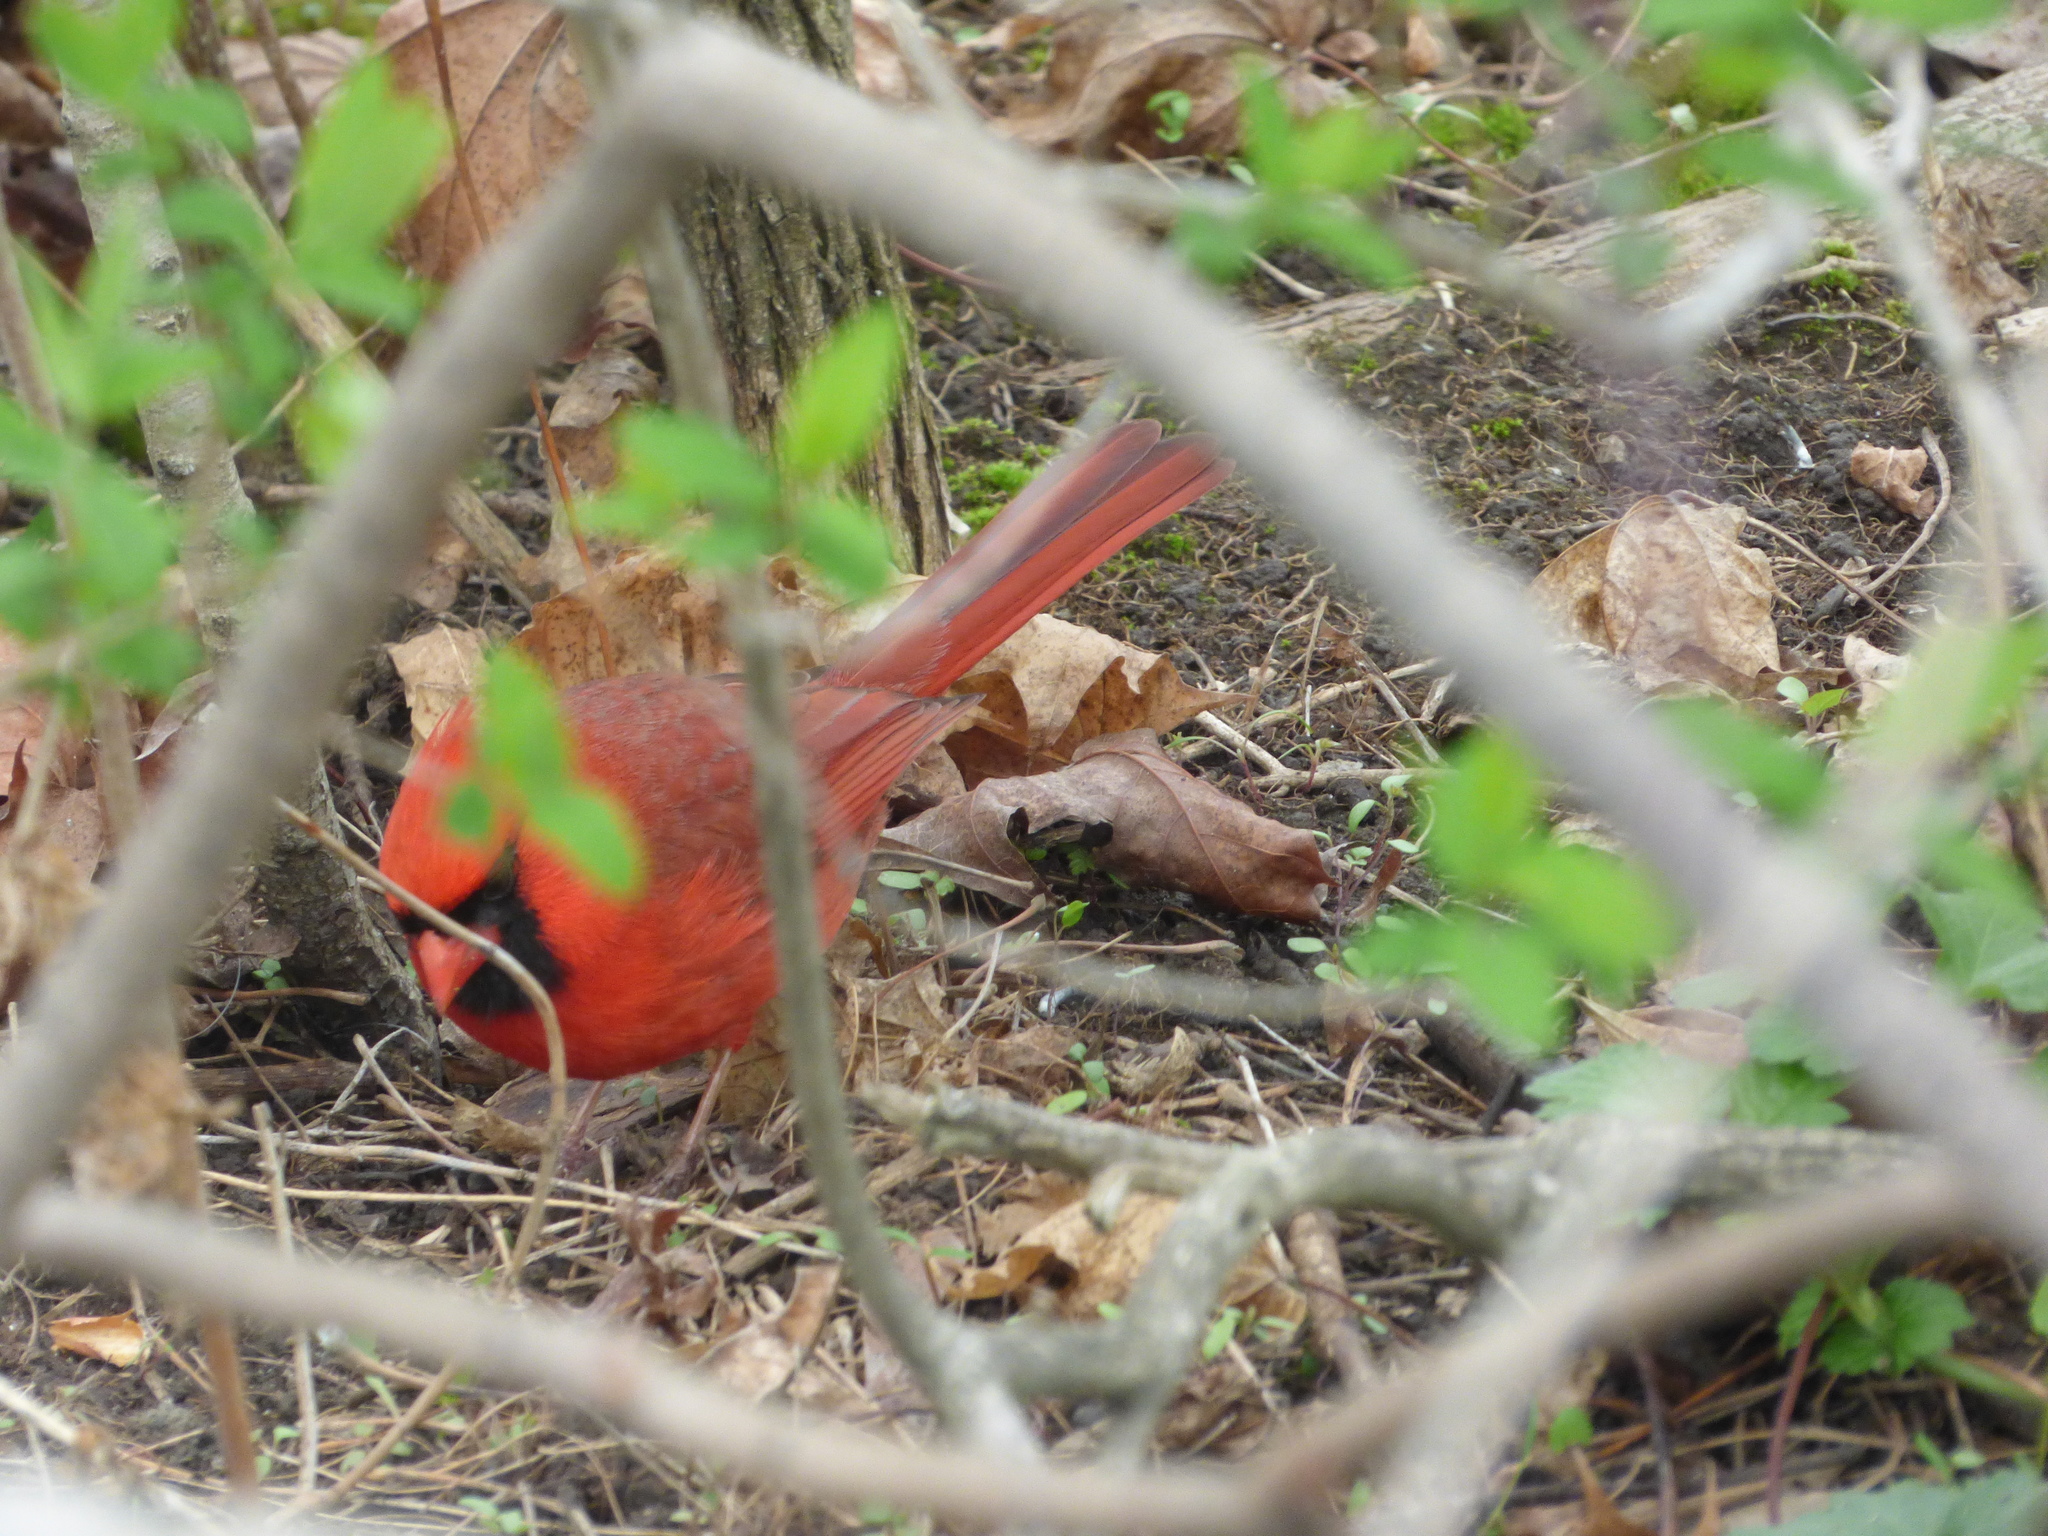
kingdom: Animalia
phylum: Chordata
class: Aves
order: Passeriformes
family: Cardinalidae
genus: Cardinalis
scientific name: Cardinalis cardinalis
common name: Northern cardinal
